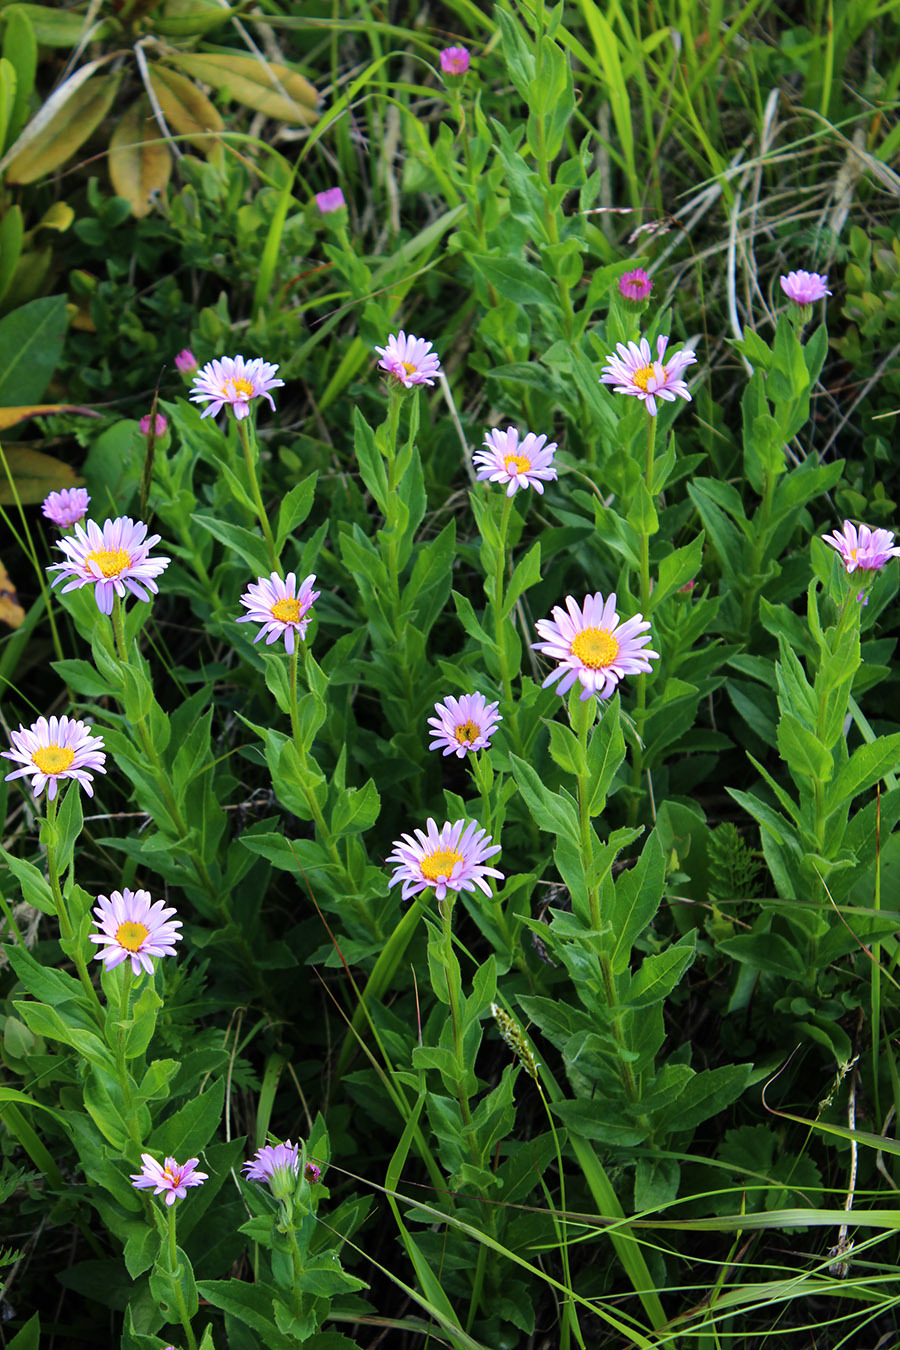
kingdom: Plantae
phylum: Tracheophyta
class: Magnoliopsida
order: Asterales
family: Asteraceae
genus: Kemulariella
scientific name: Kemulariella caucasica
